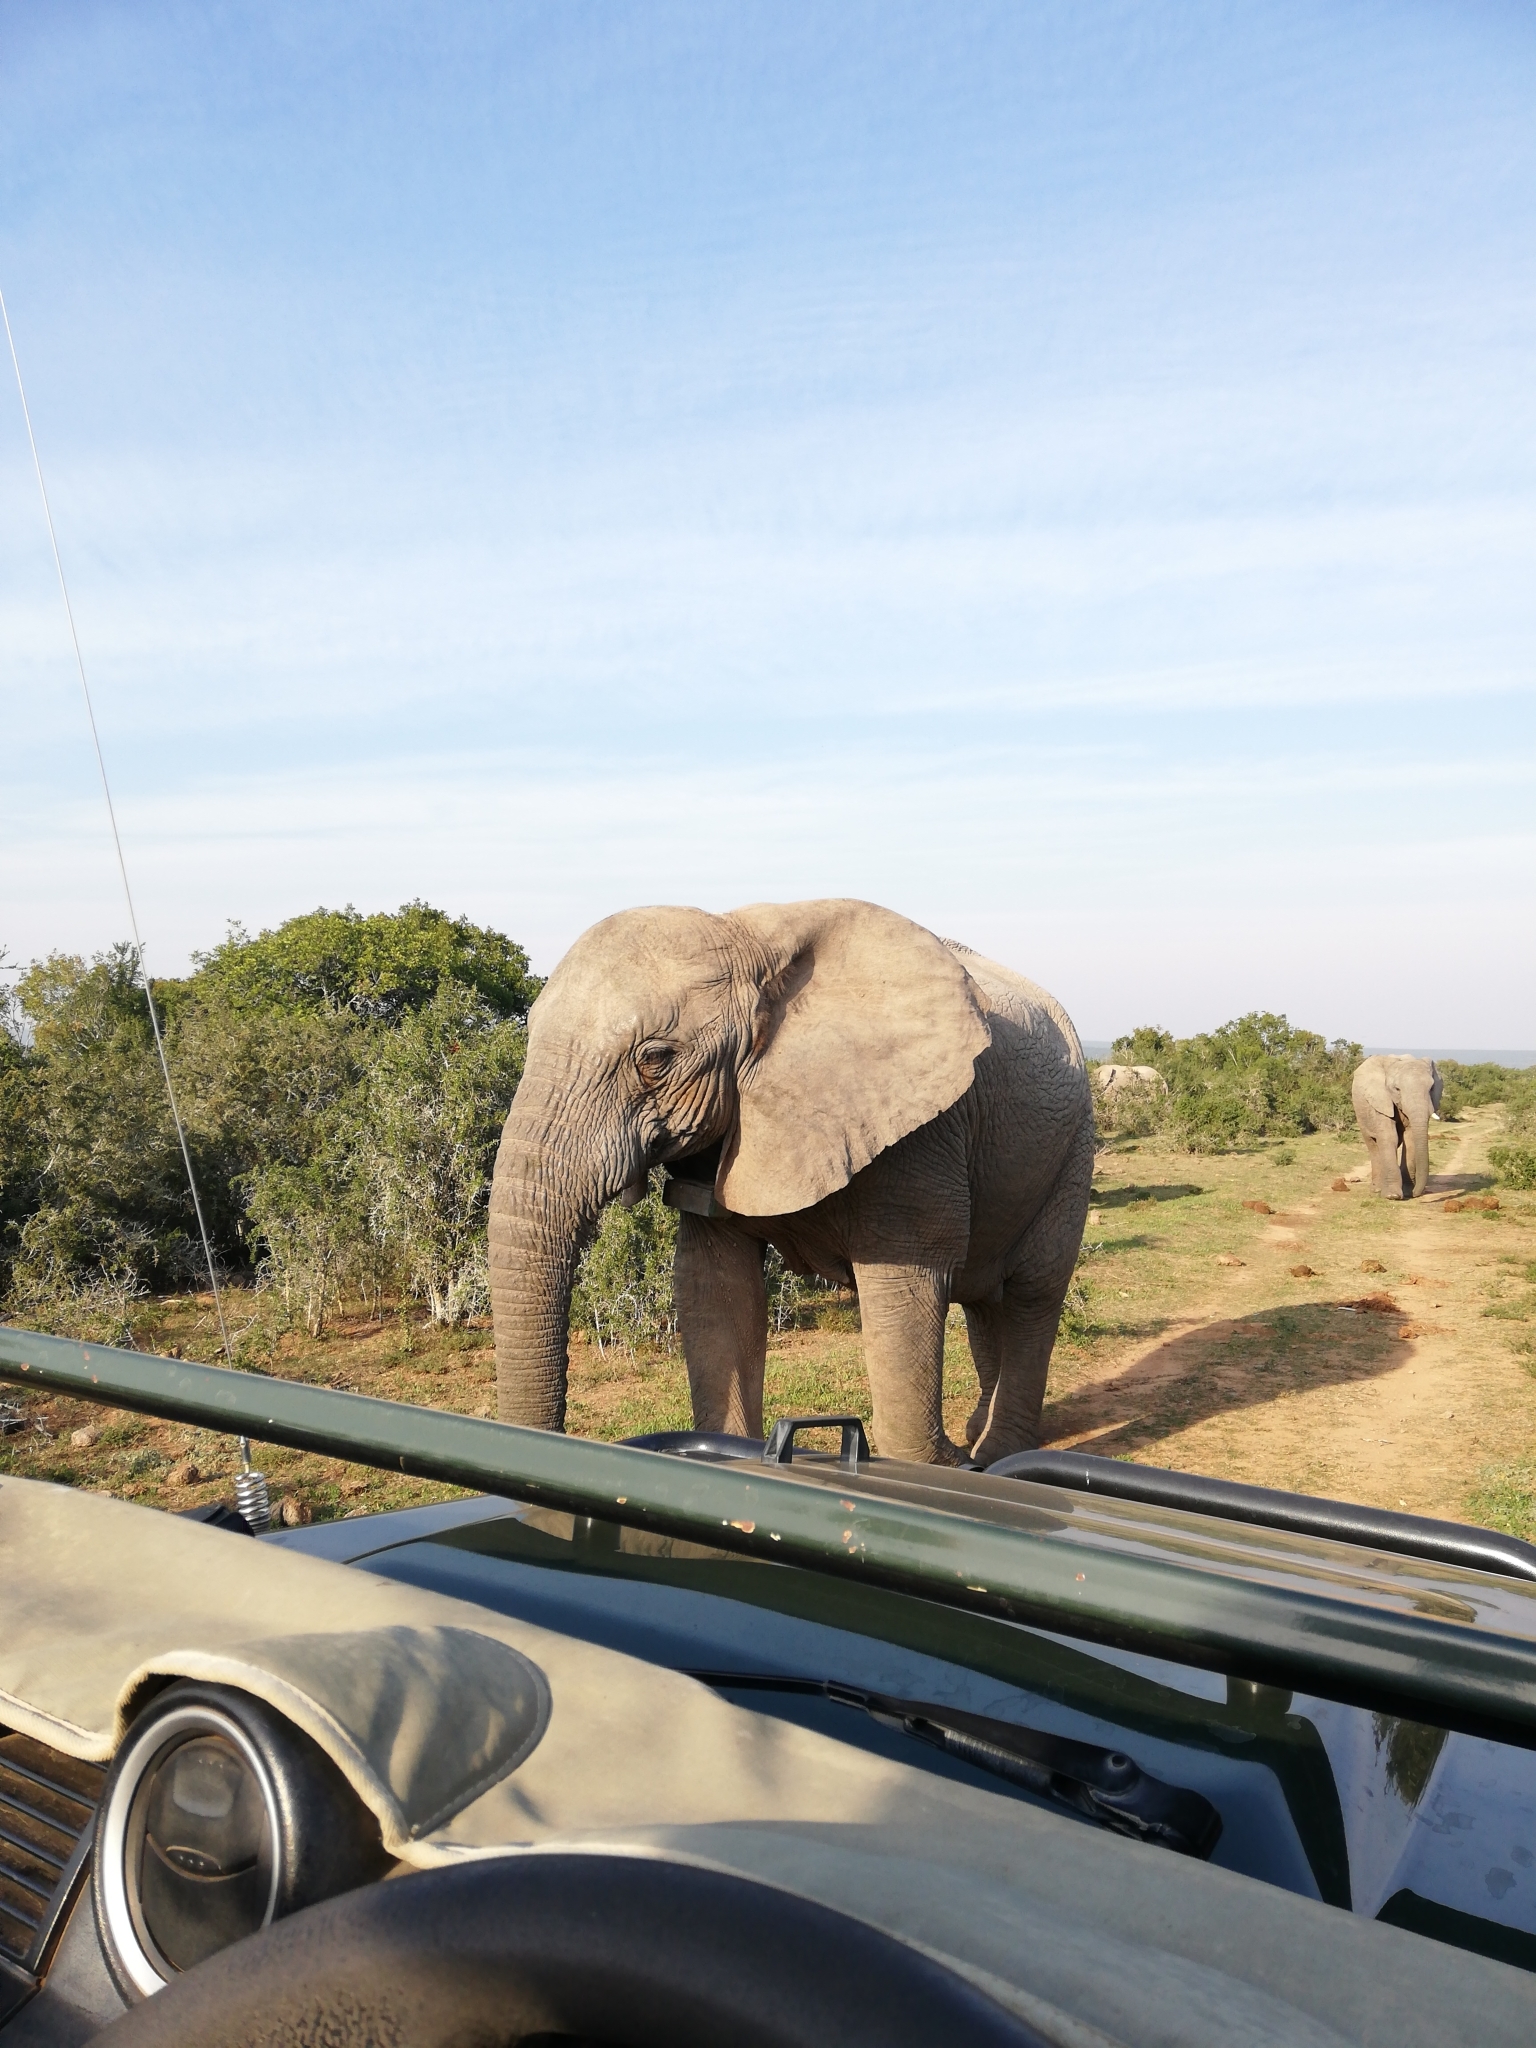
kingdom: Animalia
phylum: Chordata
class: Mammalia
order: Proboscidea
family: Elephantidae
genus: Loxodonta
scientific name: Loxodonta africana
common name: African elephant
